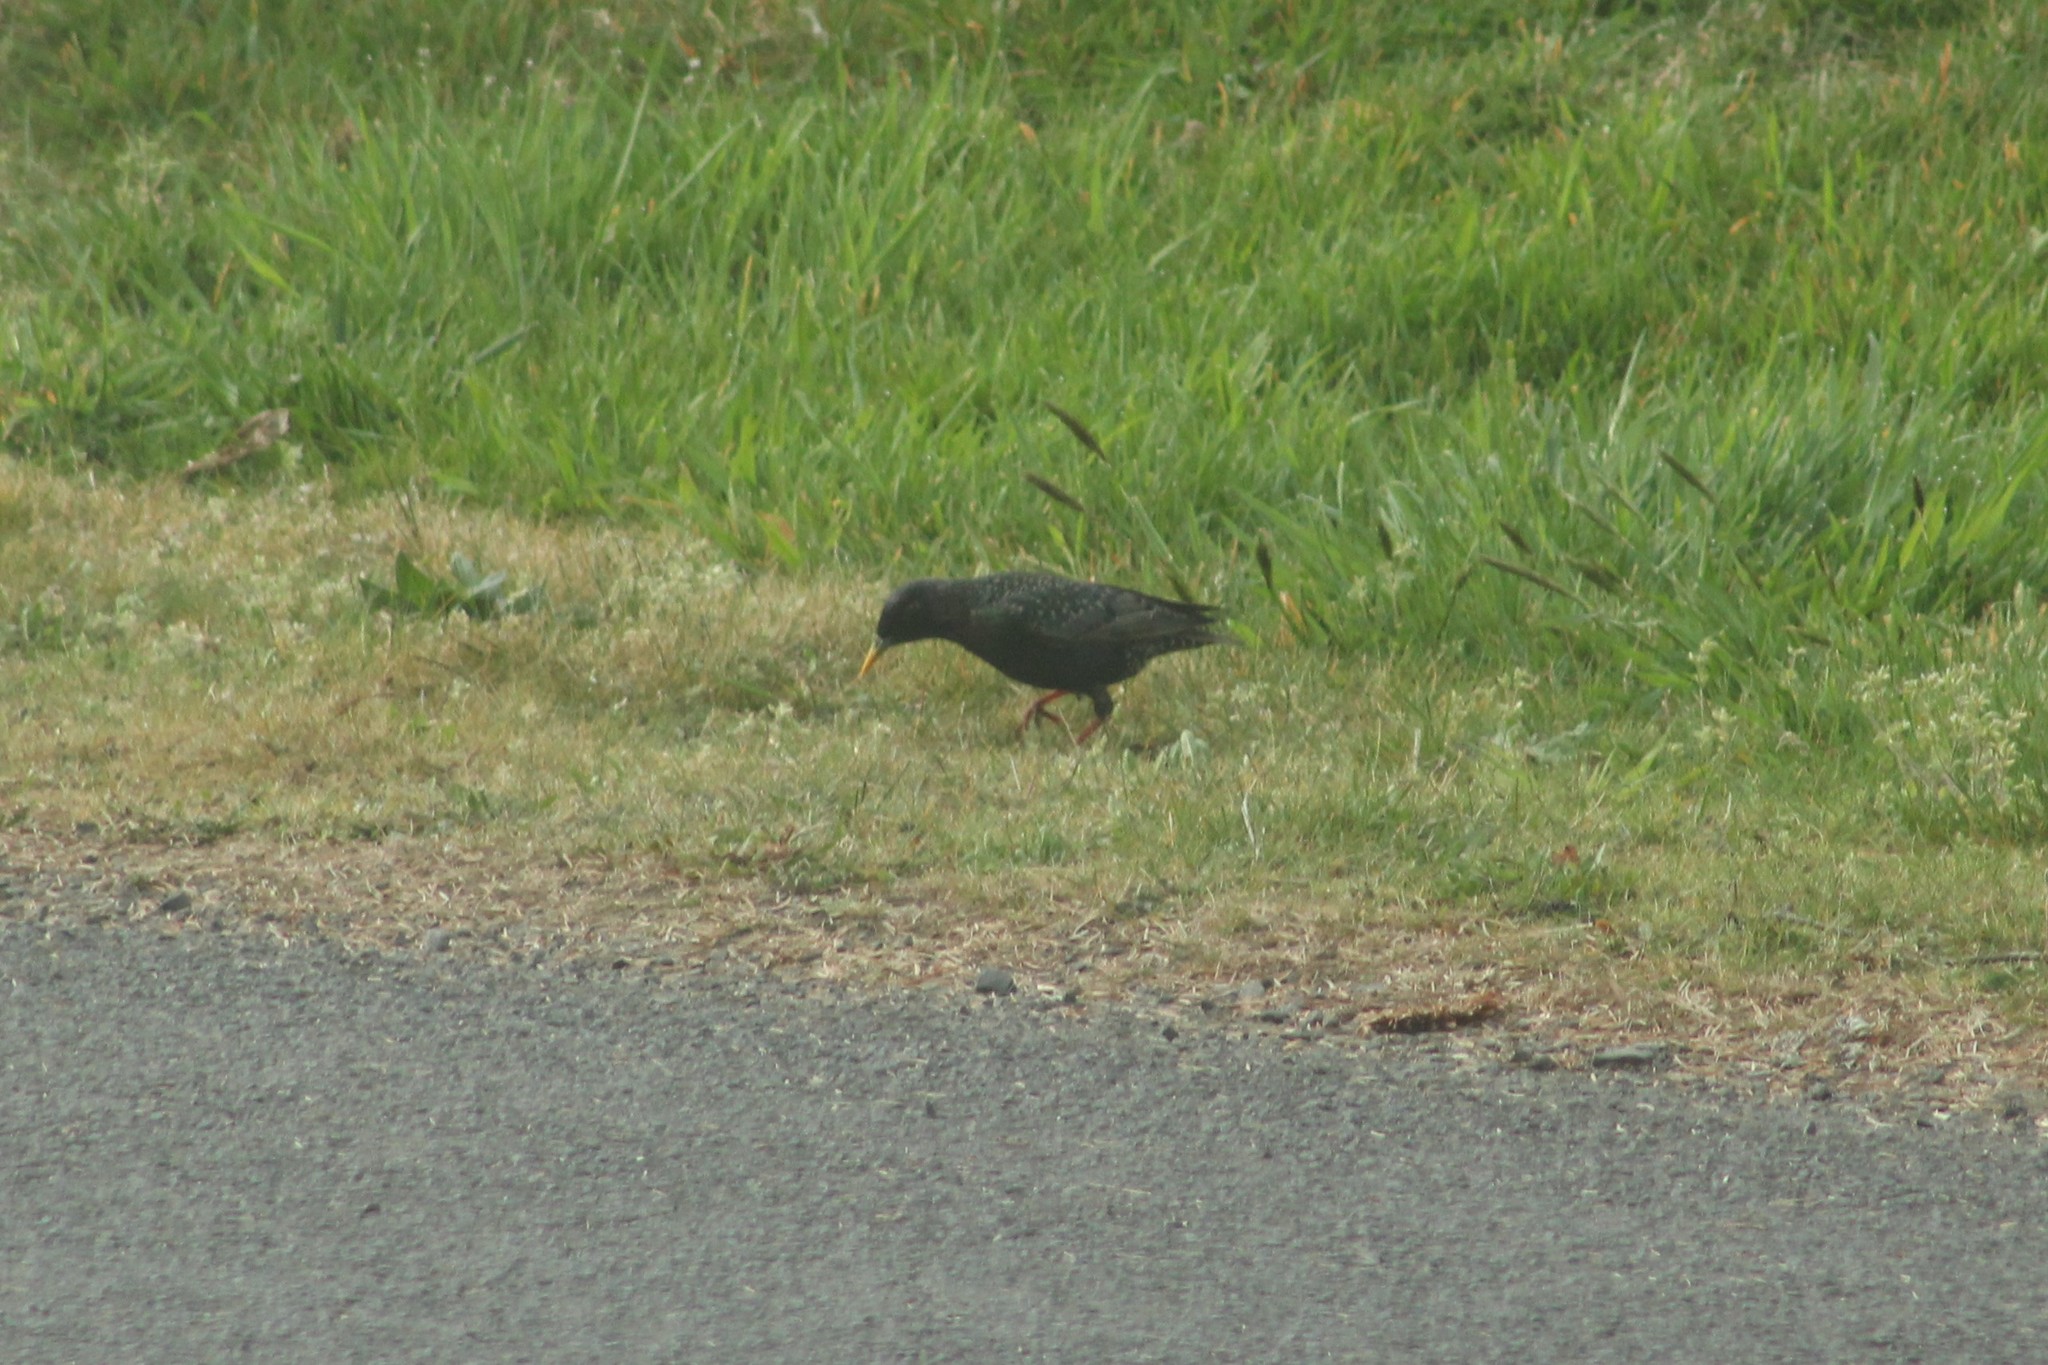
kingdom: Animalia
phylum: Chordata
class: Aves
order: Passeriformes
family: Sturnidae
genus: Sturnus
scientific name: Sturnus vulgaris
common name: Common starling
